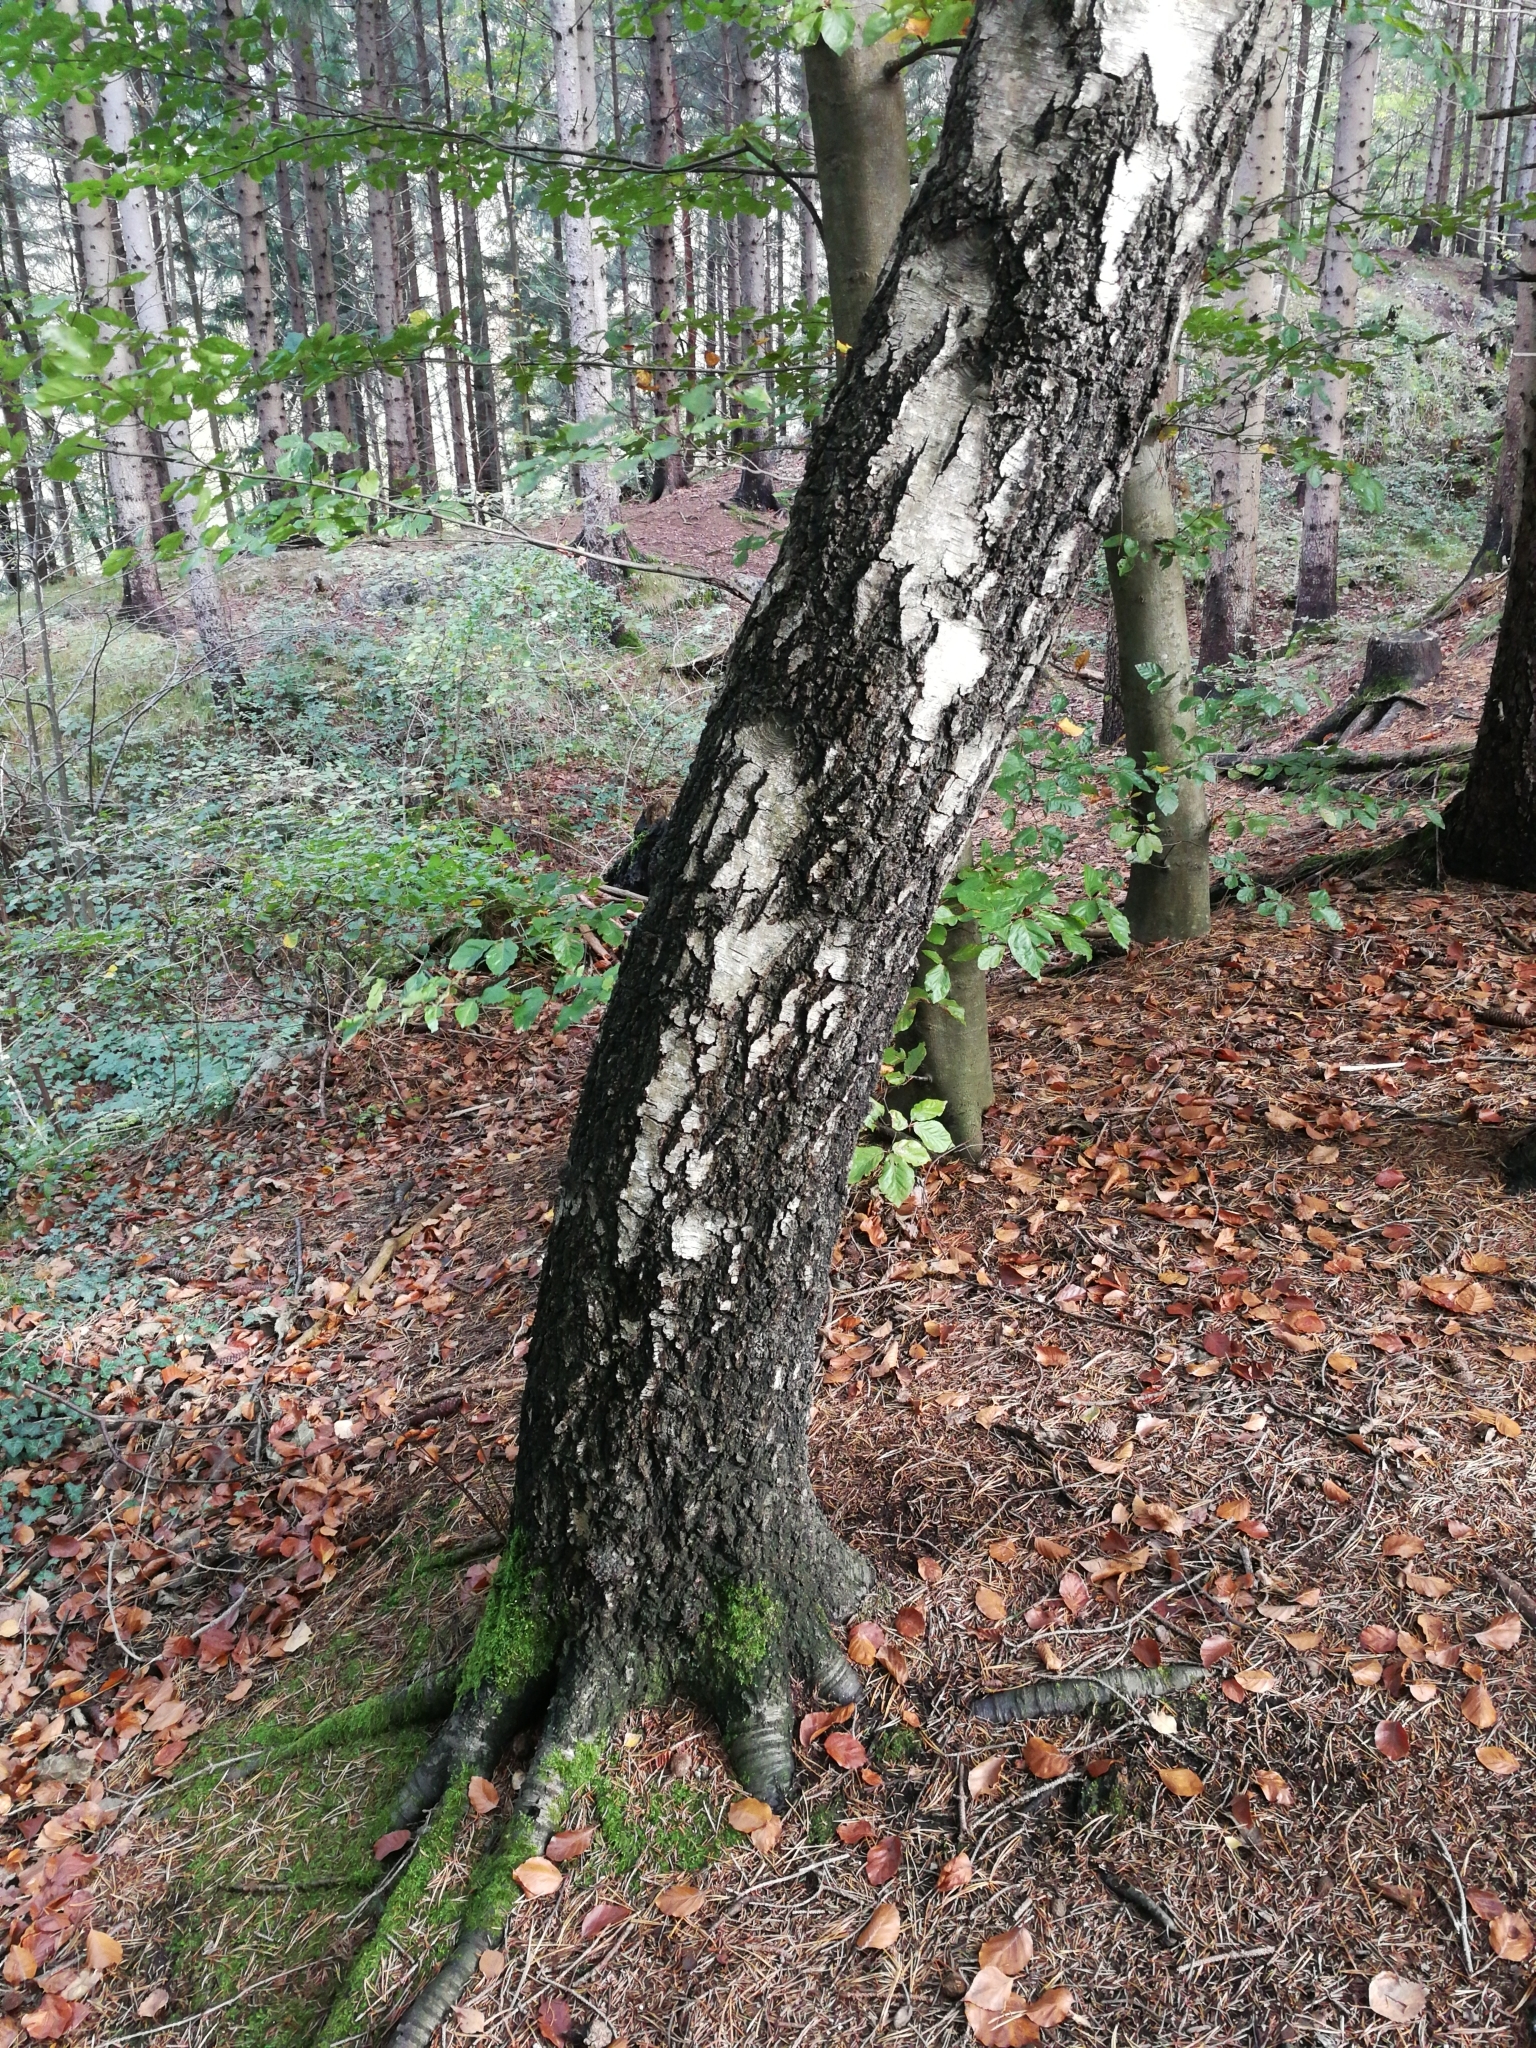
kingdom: Plantae
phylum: Tracheophyta
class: Magnoliopsida
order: Fagales
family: Betulaceae
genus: Betula
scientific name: Betula pendula
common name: Silver birch
